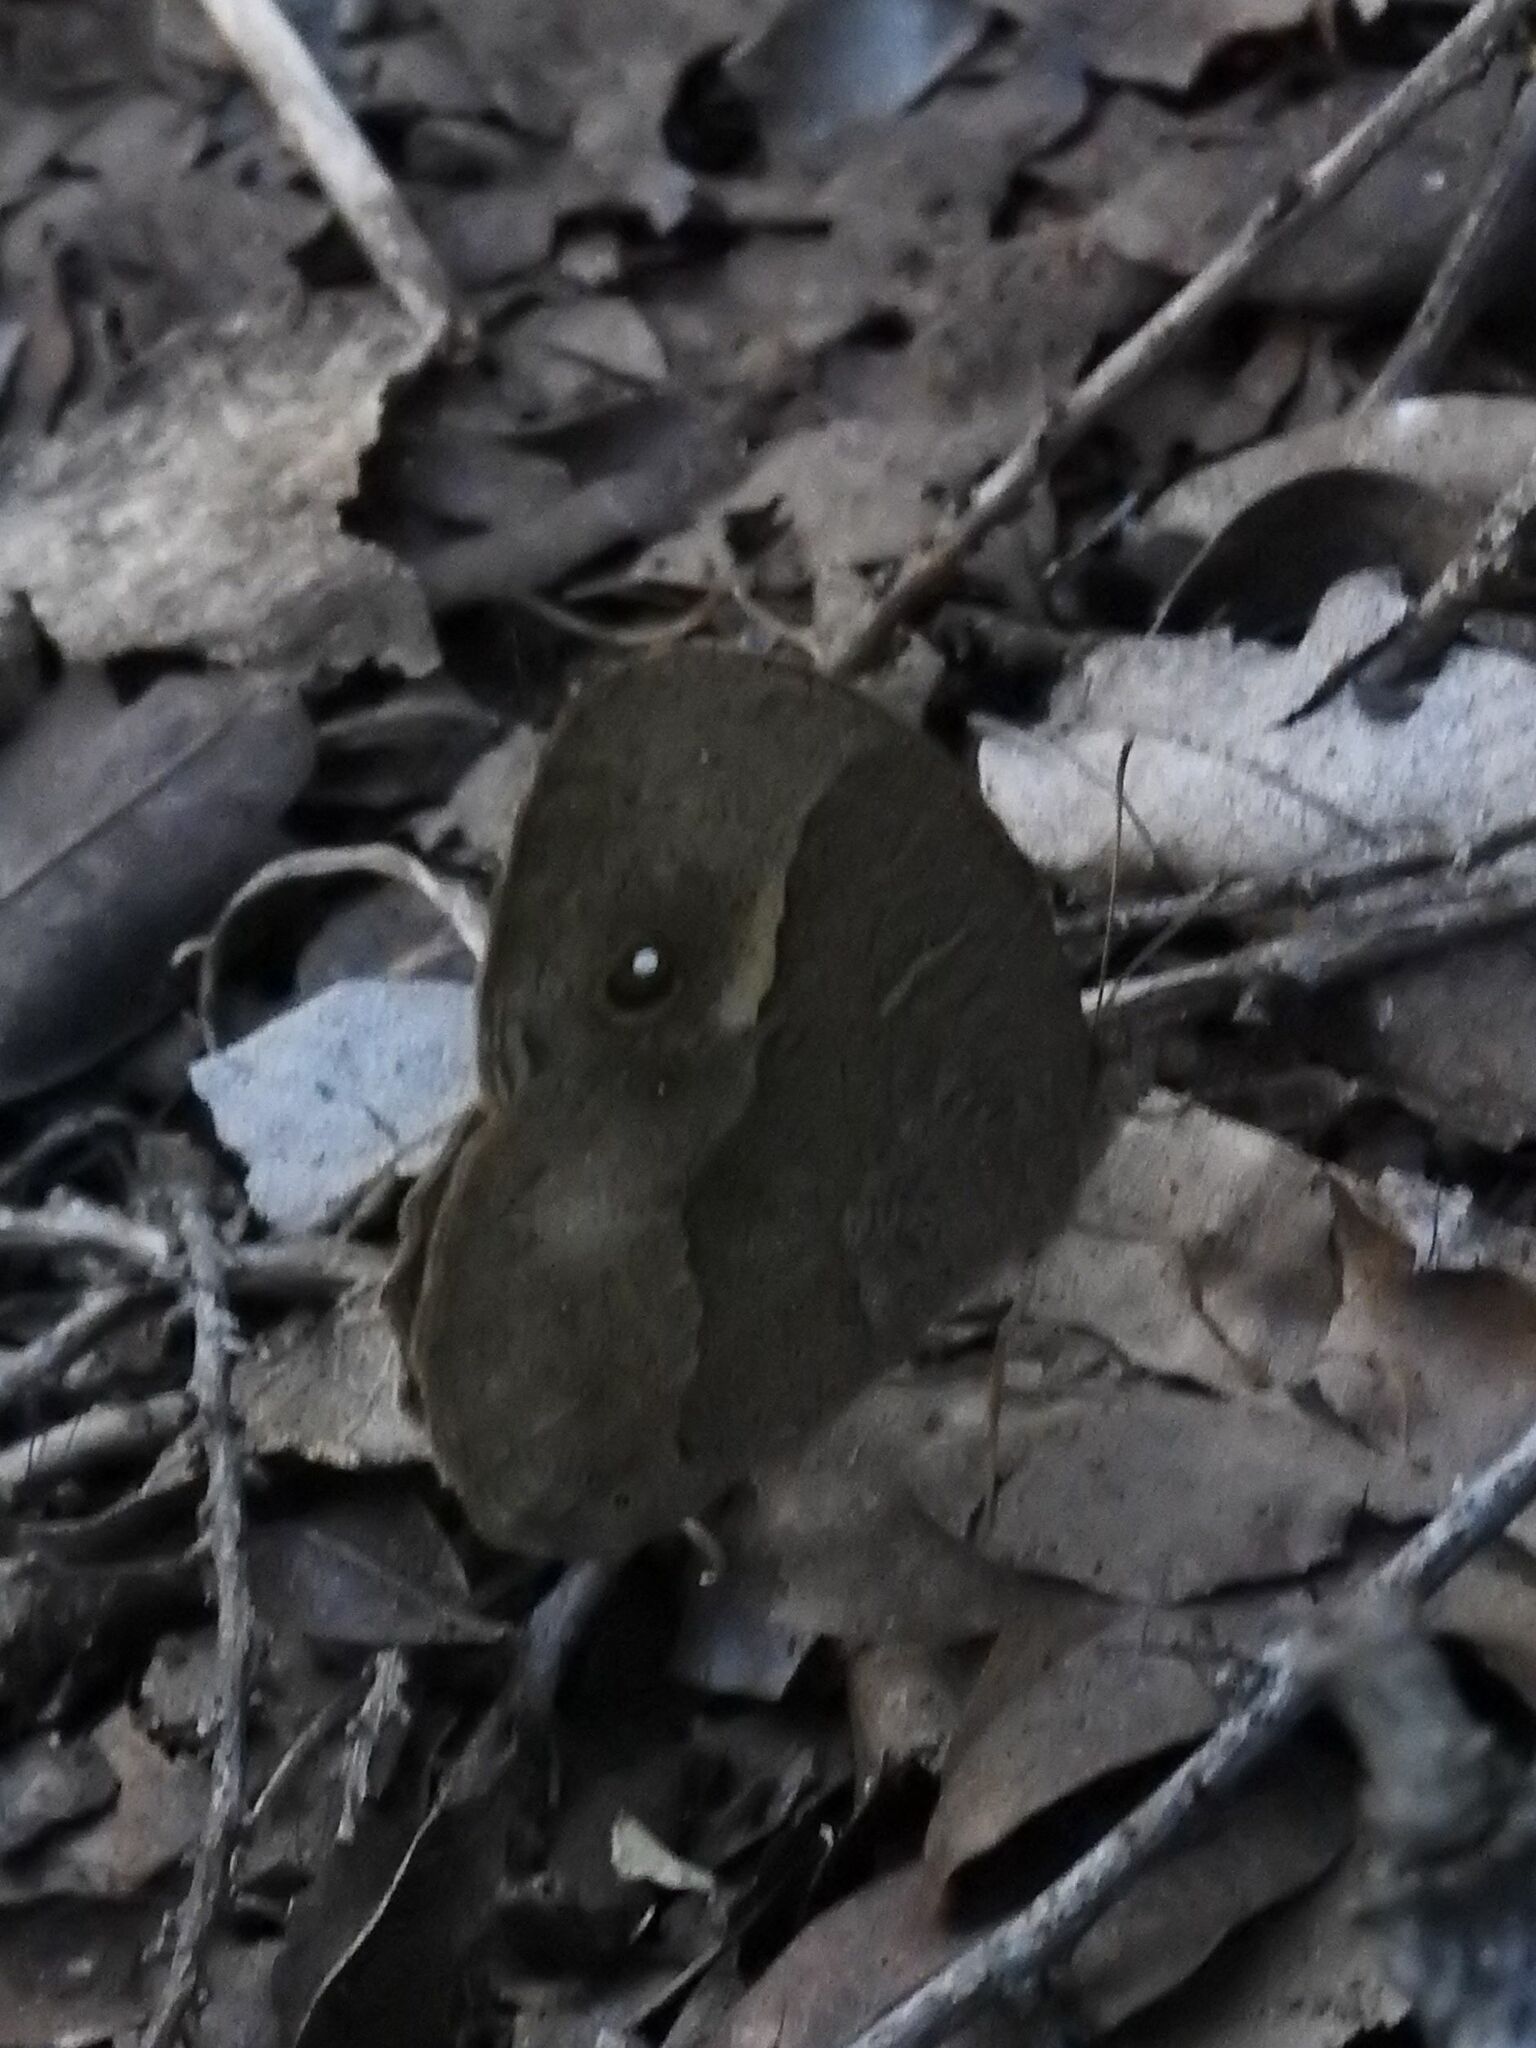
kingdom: Animalia
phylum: Arthropoda
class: Insecta
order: Lepidoptera
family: Nymphalidae
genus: Mycalesis
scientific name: Mycalesis anynana
